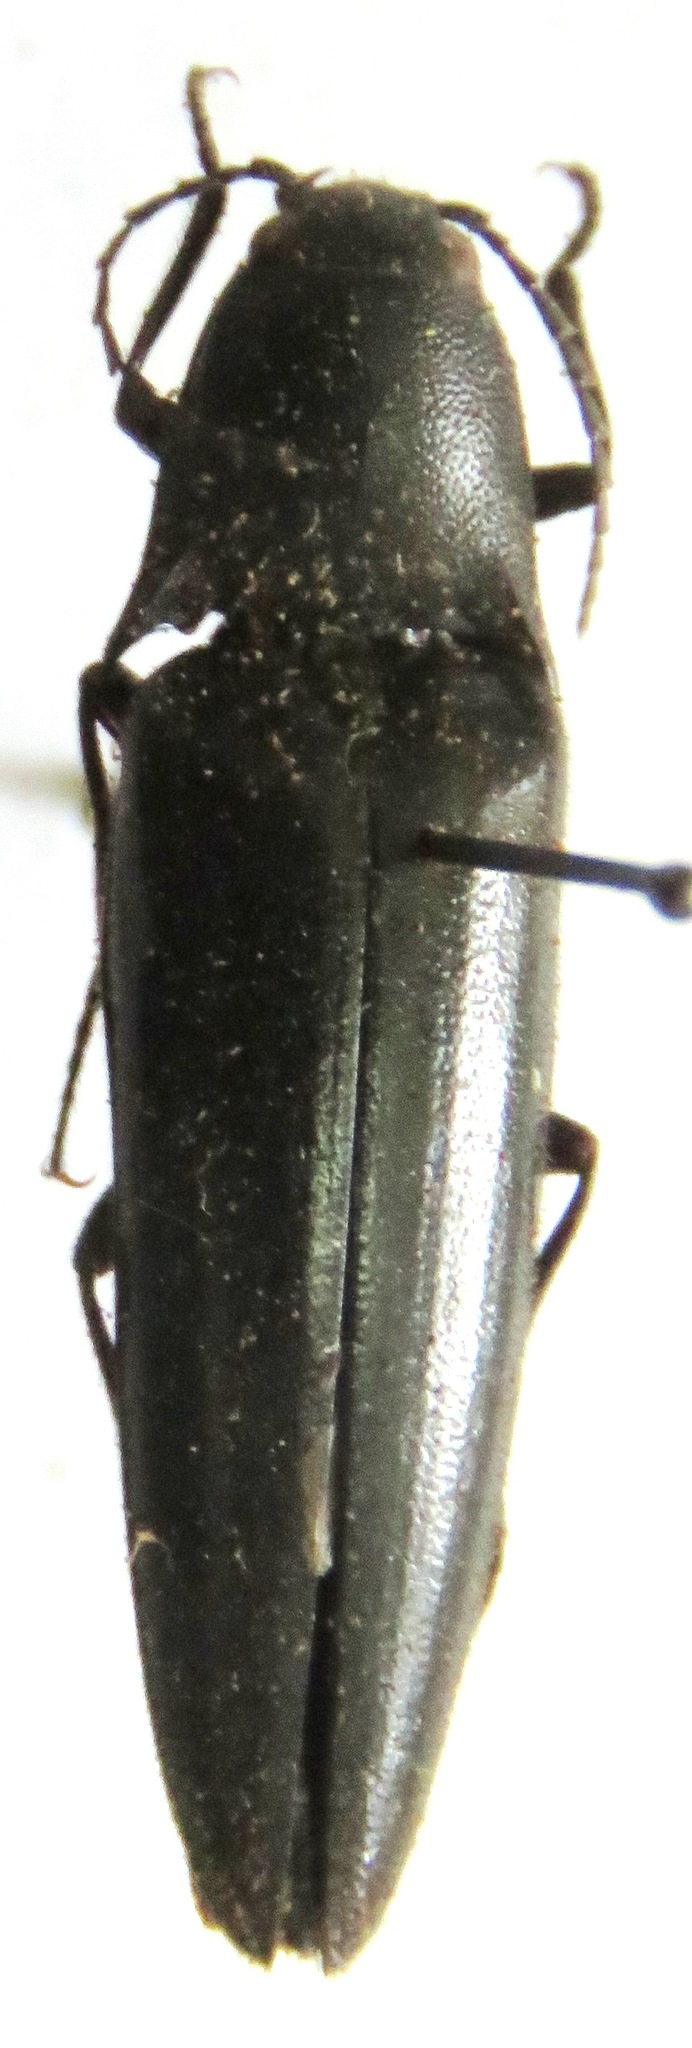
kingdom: Animalia
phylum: Arthropoda
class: Insecta
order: Coleoptera
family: Elateridae
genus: Orthostethus
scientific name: Orthostethus
